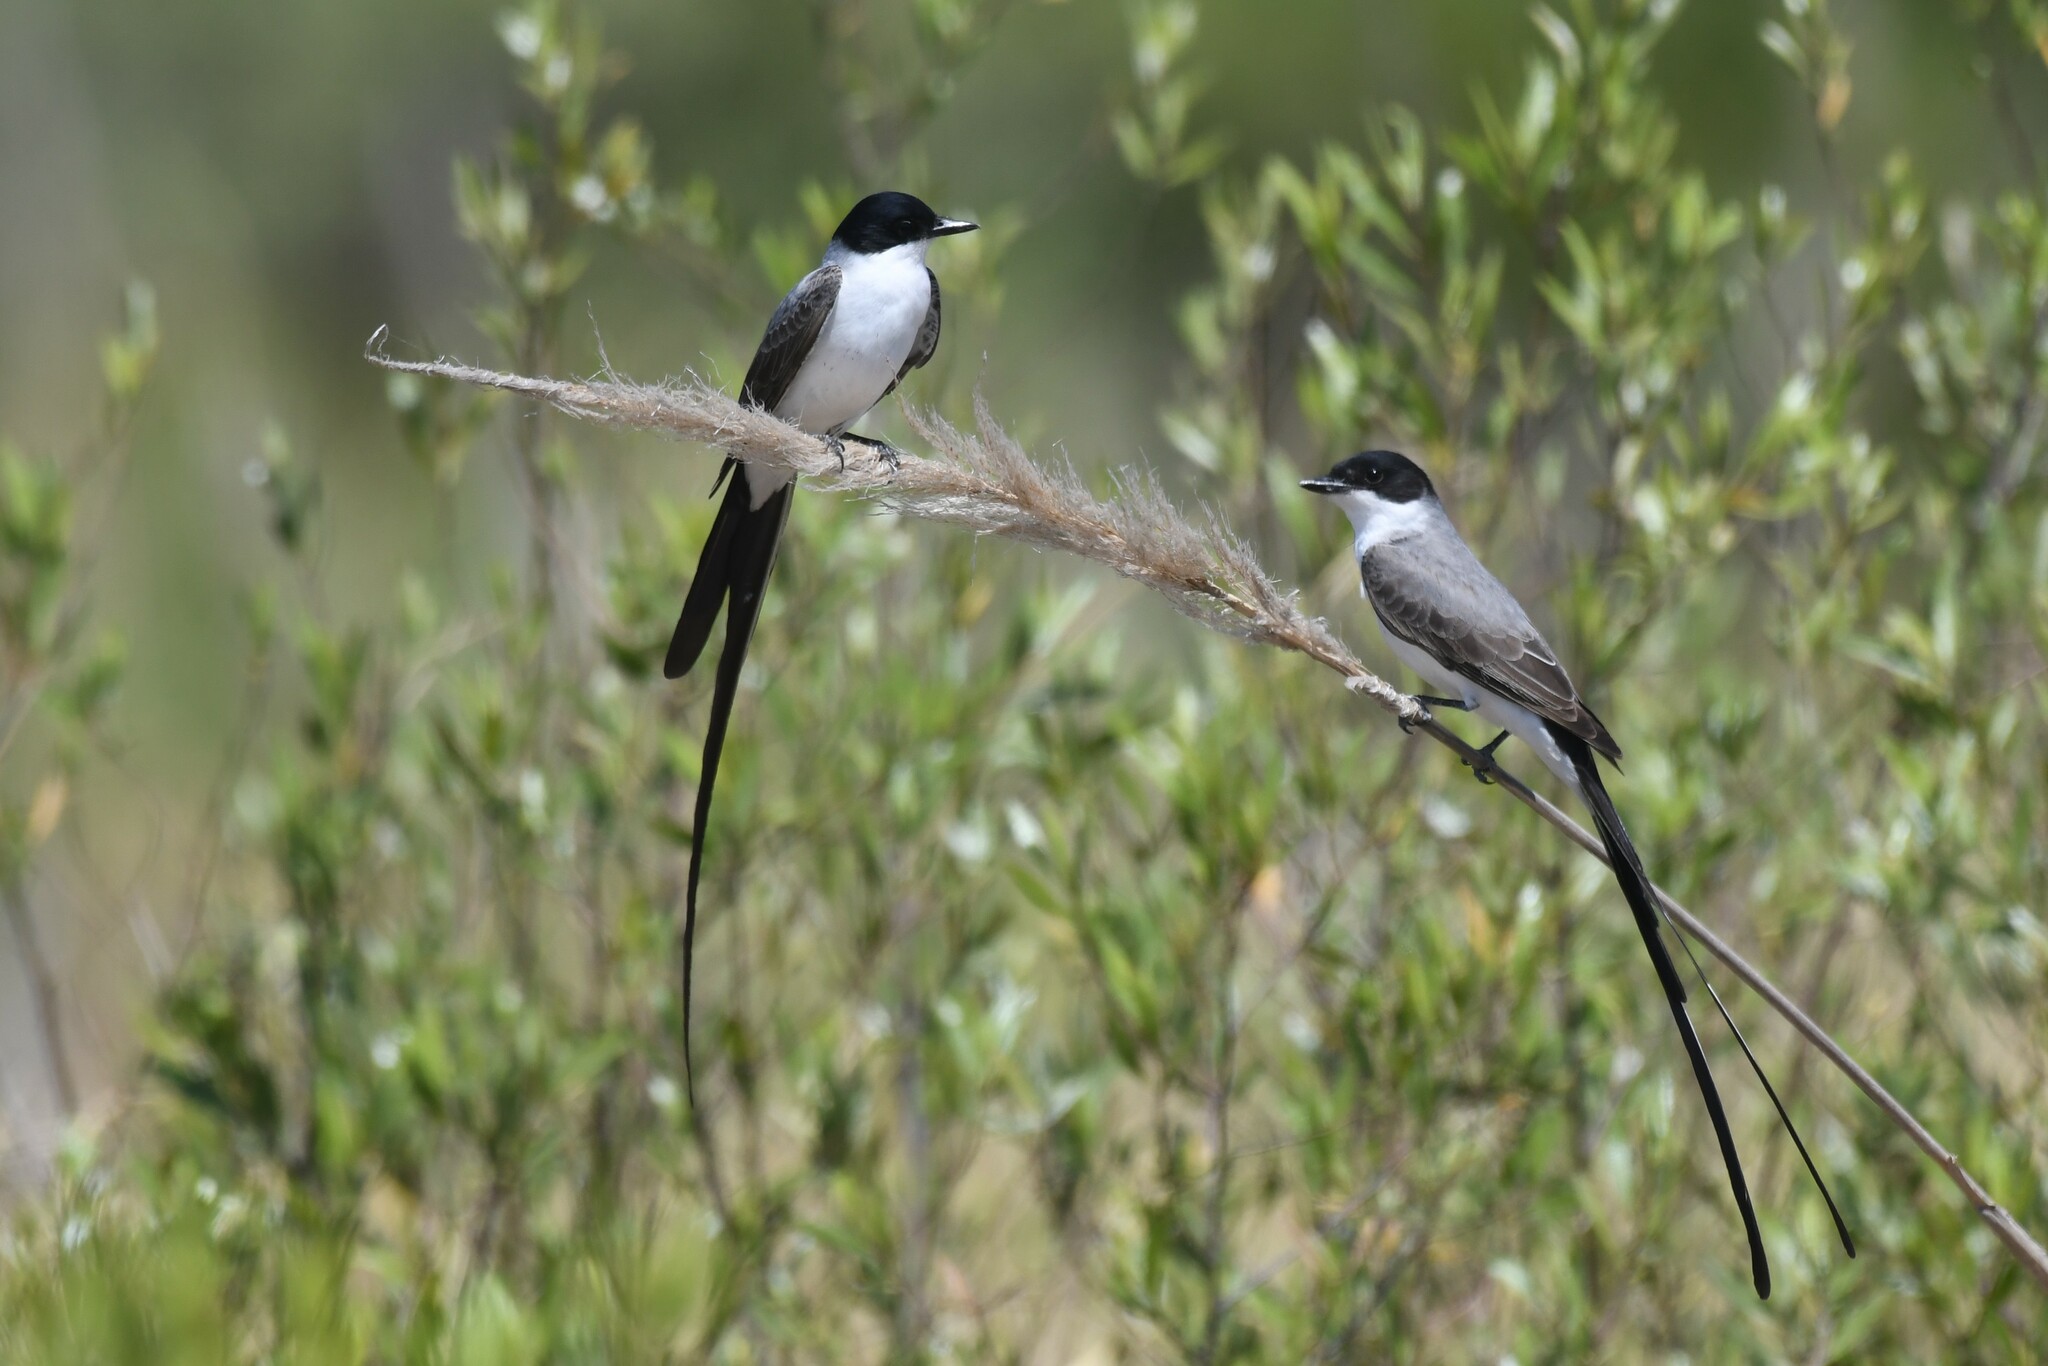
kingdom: Animalia
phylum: Chordata
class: Aves
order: Passeriformes
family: Tyrannidae
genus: Tyrannus
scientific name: Tyrannus savana
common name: Fork-tailed flycatcher
